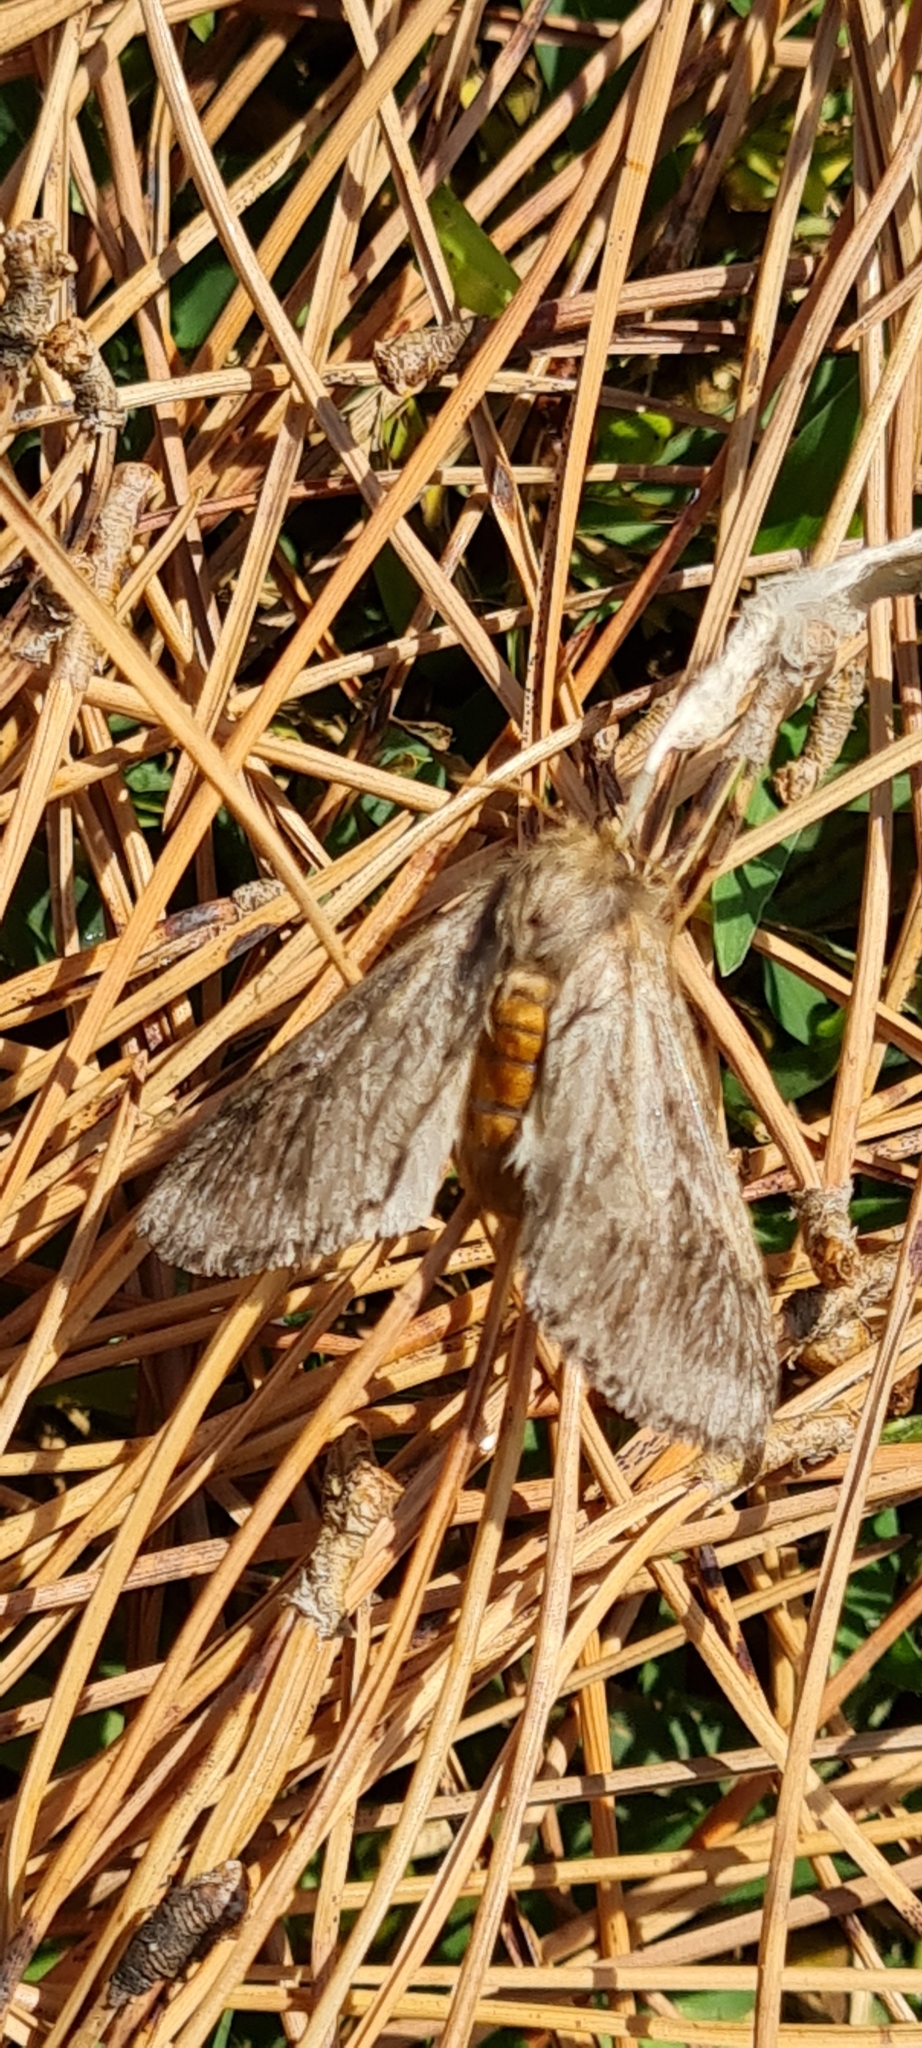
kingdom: Animalia
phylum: Arthropoda
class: Insecta
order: Lepidoptera
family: Notodontidae
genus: Thaumetopoea
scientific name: Thaumetopoea pityocampa
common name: Pine processionary
